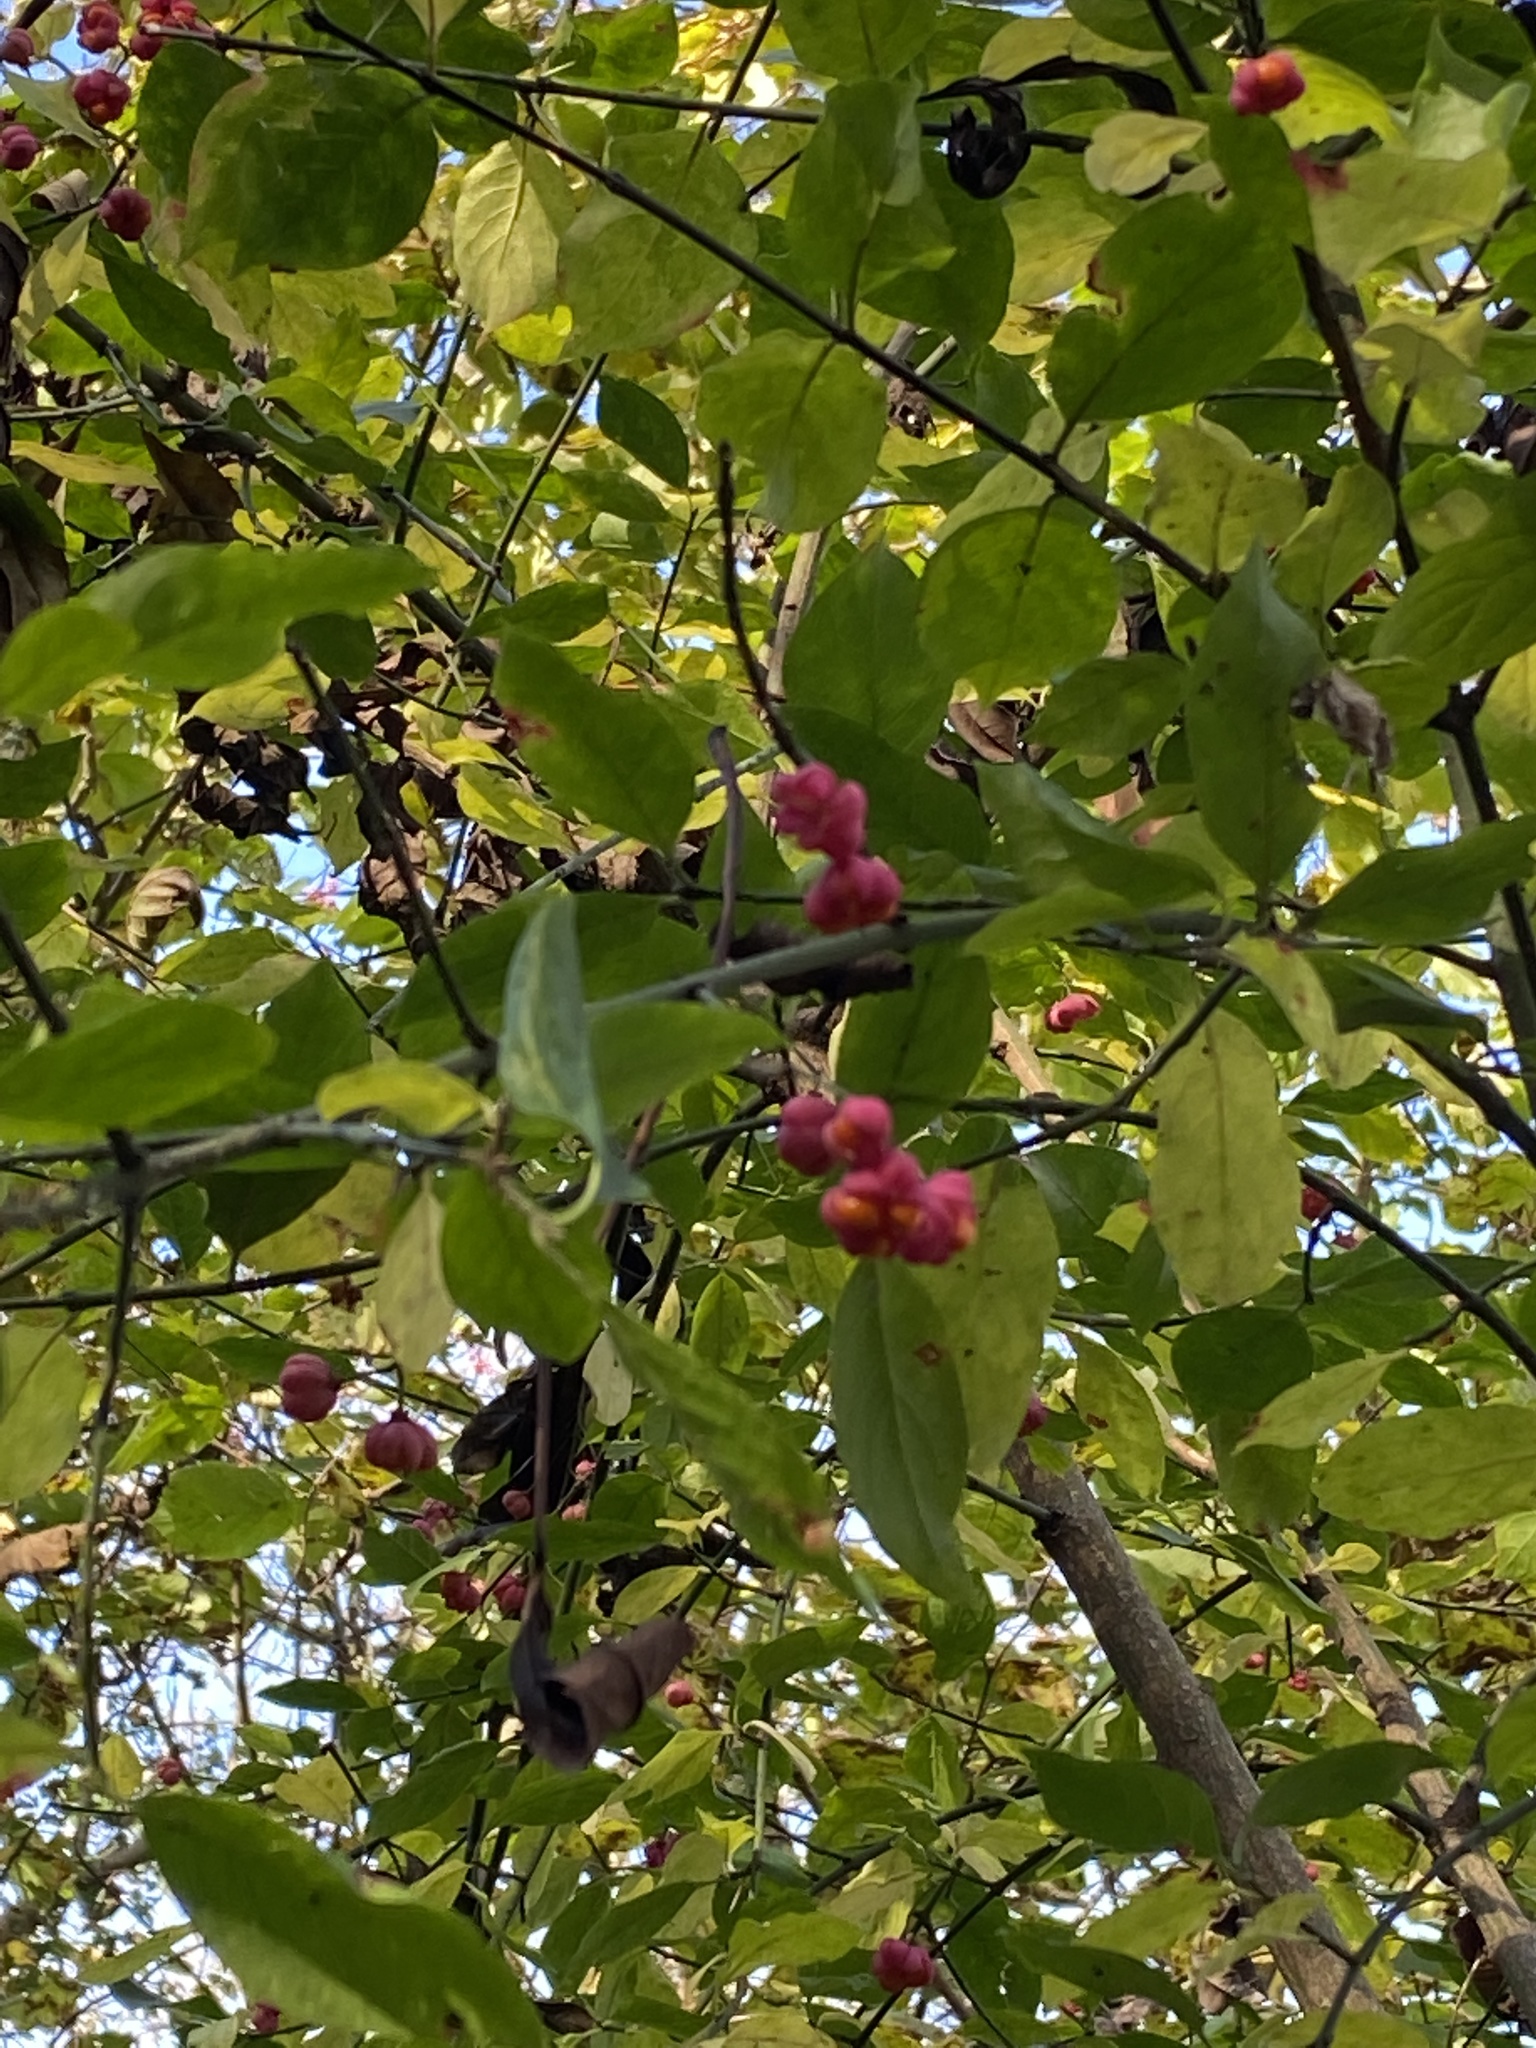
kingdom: Plantae
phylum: Tracheophyta
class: Magnoliopsida
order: Celastrales
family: Celastraceae
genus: Euonymus
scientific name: Euonymus europaeus
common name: Spindle
